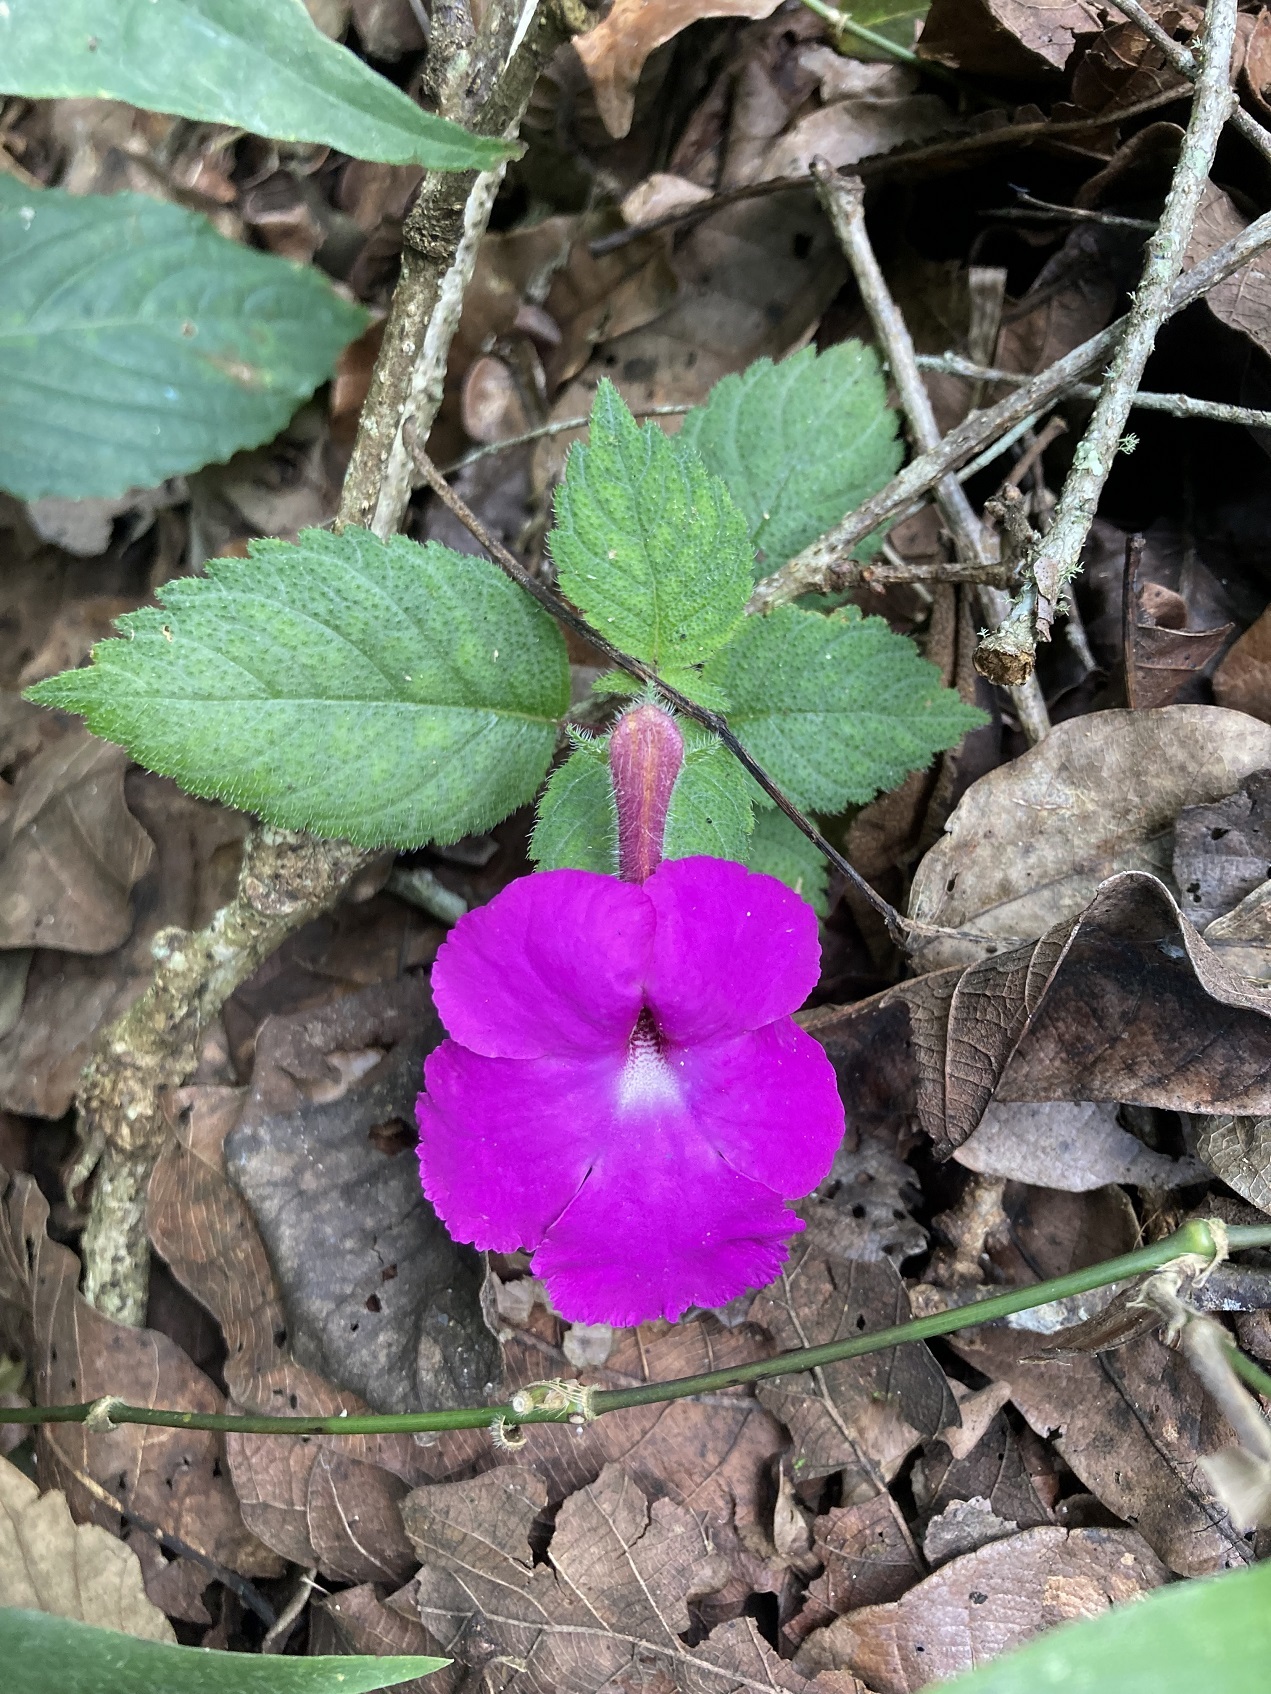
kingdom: Plantae
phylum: Tracheophyta
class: Magnoliopsida
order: Lamiales
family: Gesneriaceae
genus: Achimenes
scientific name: Achimenes grandiflora
